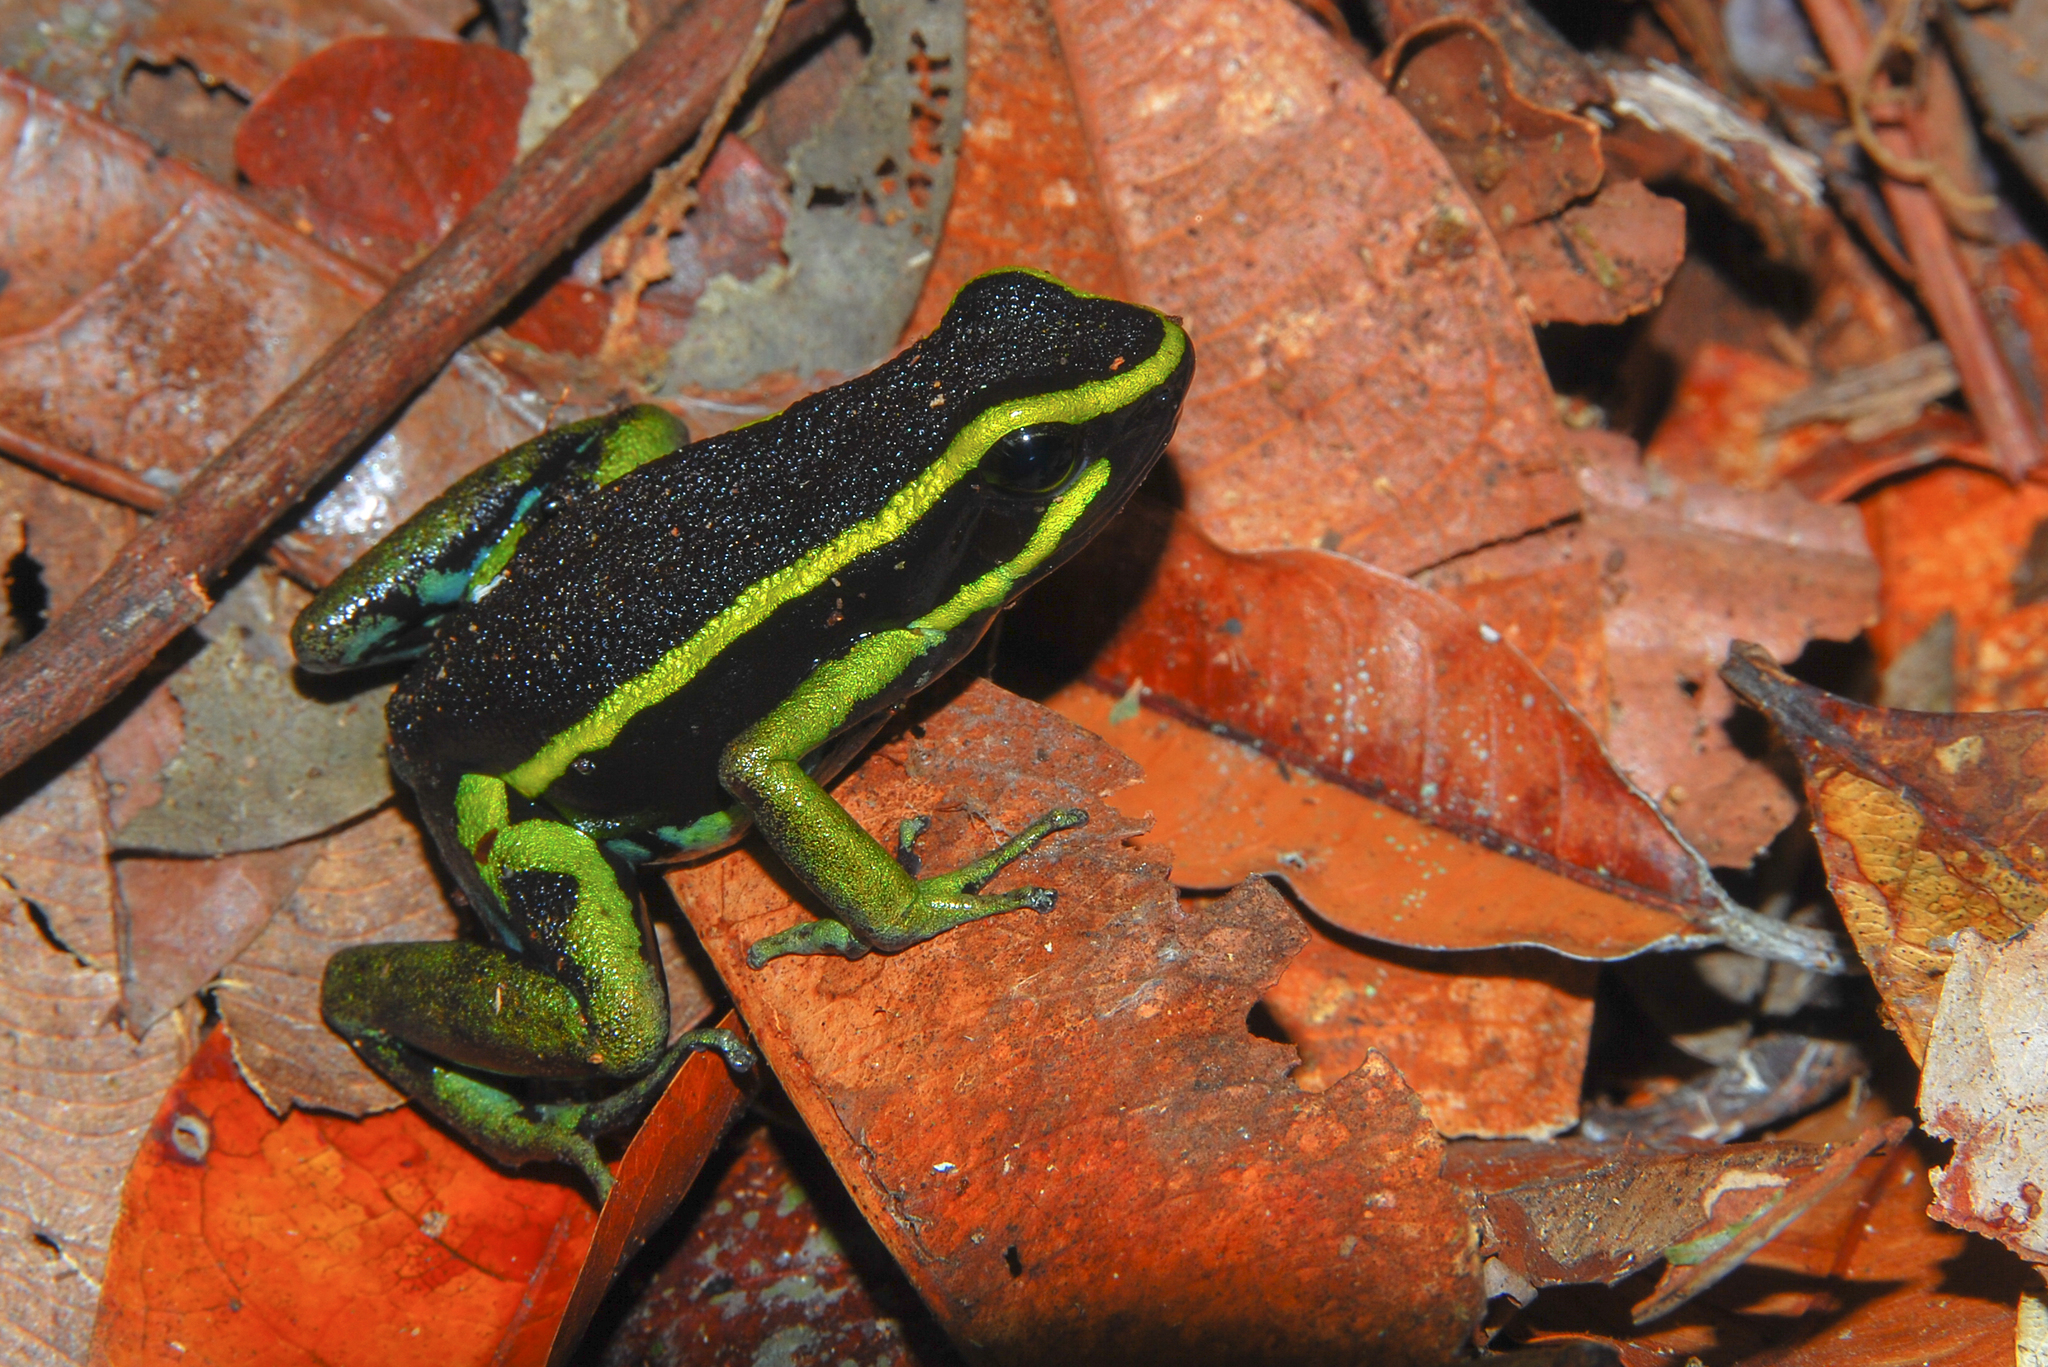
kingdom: Animalia
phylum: Chordata
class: Amphibia
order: Anura
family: Dendrobatidae
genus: Ameerega
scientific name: Ameerega trivittata
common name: Three-striped arrow-poison frog
